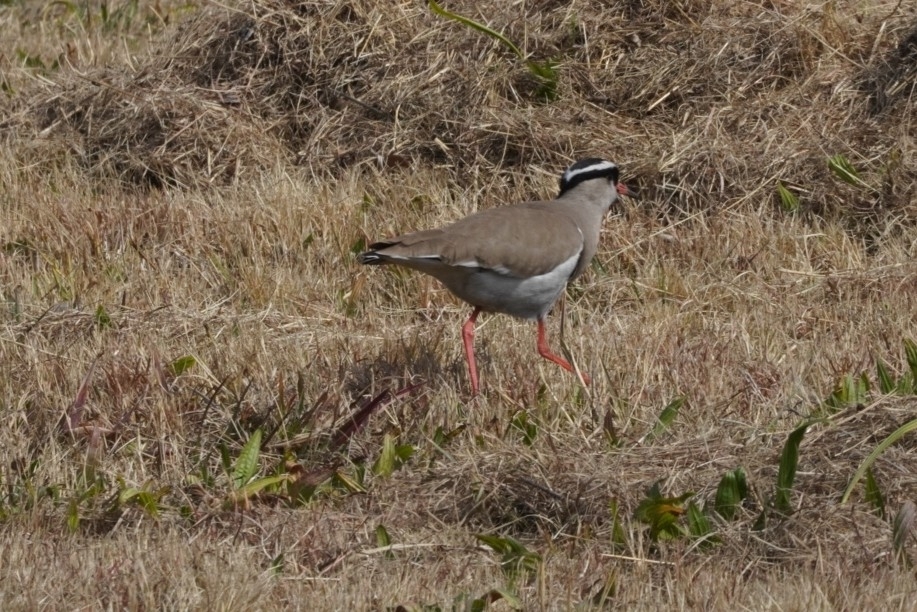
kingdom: Animalia
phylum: Chordata
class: Aves
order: Charadriiformes
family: Charadriidae
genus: Vanellus
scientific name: Vanellus coronatus
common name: Crowned lapwing
